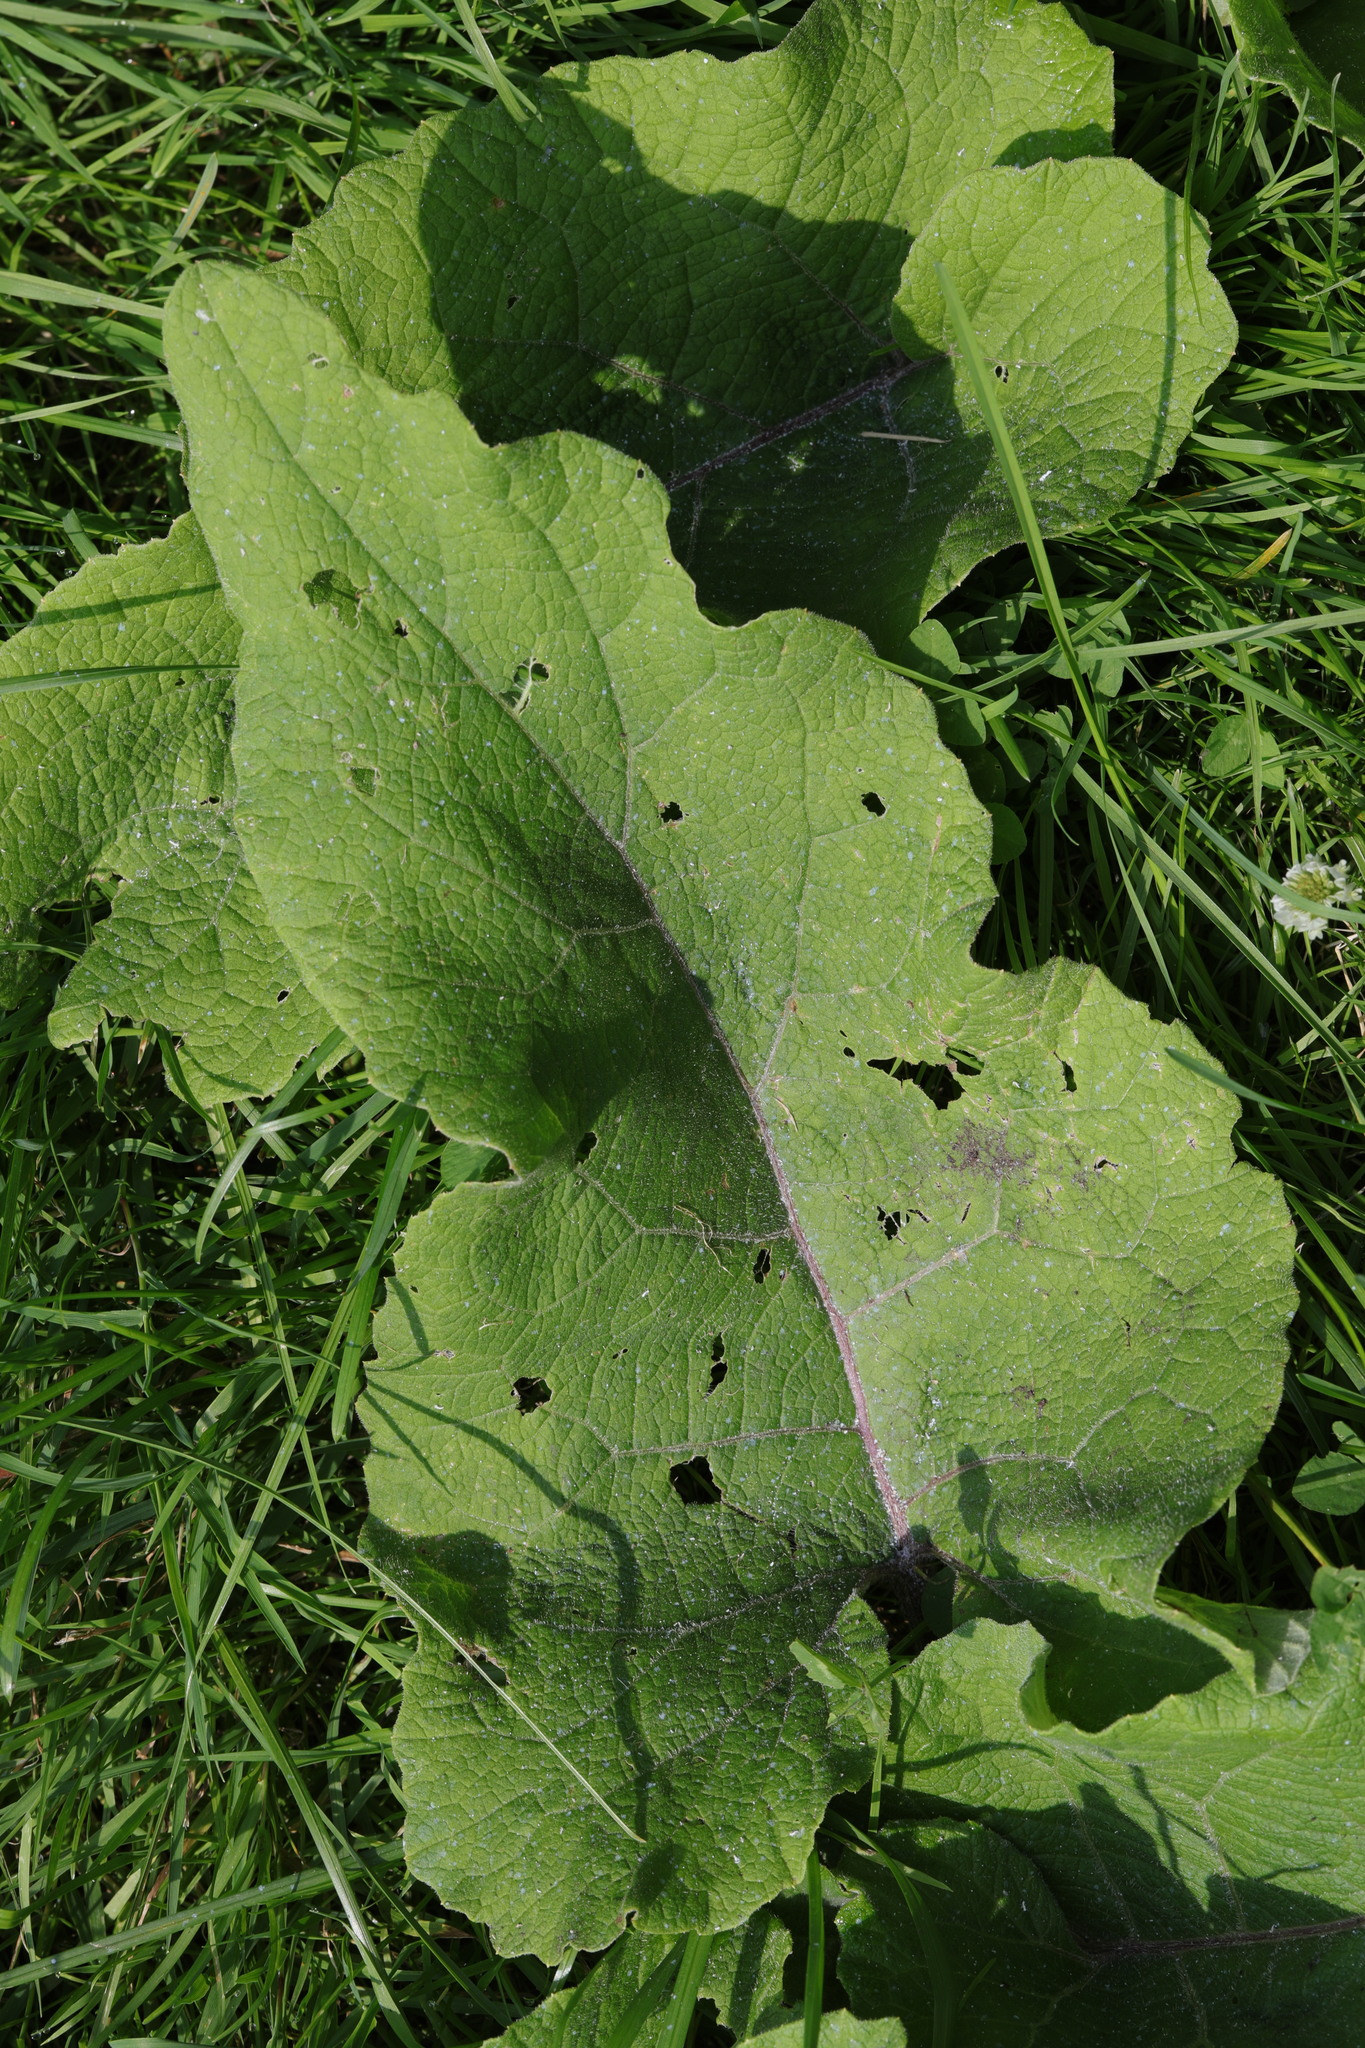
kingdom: Plantae
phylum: Tracheophyta
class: Magnoliopsida
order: Asterales
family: Asteraceae
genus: Arctium
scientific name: Arctium minus
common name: Lesser burdock
